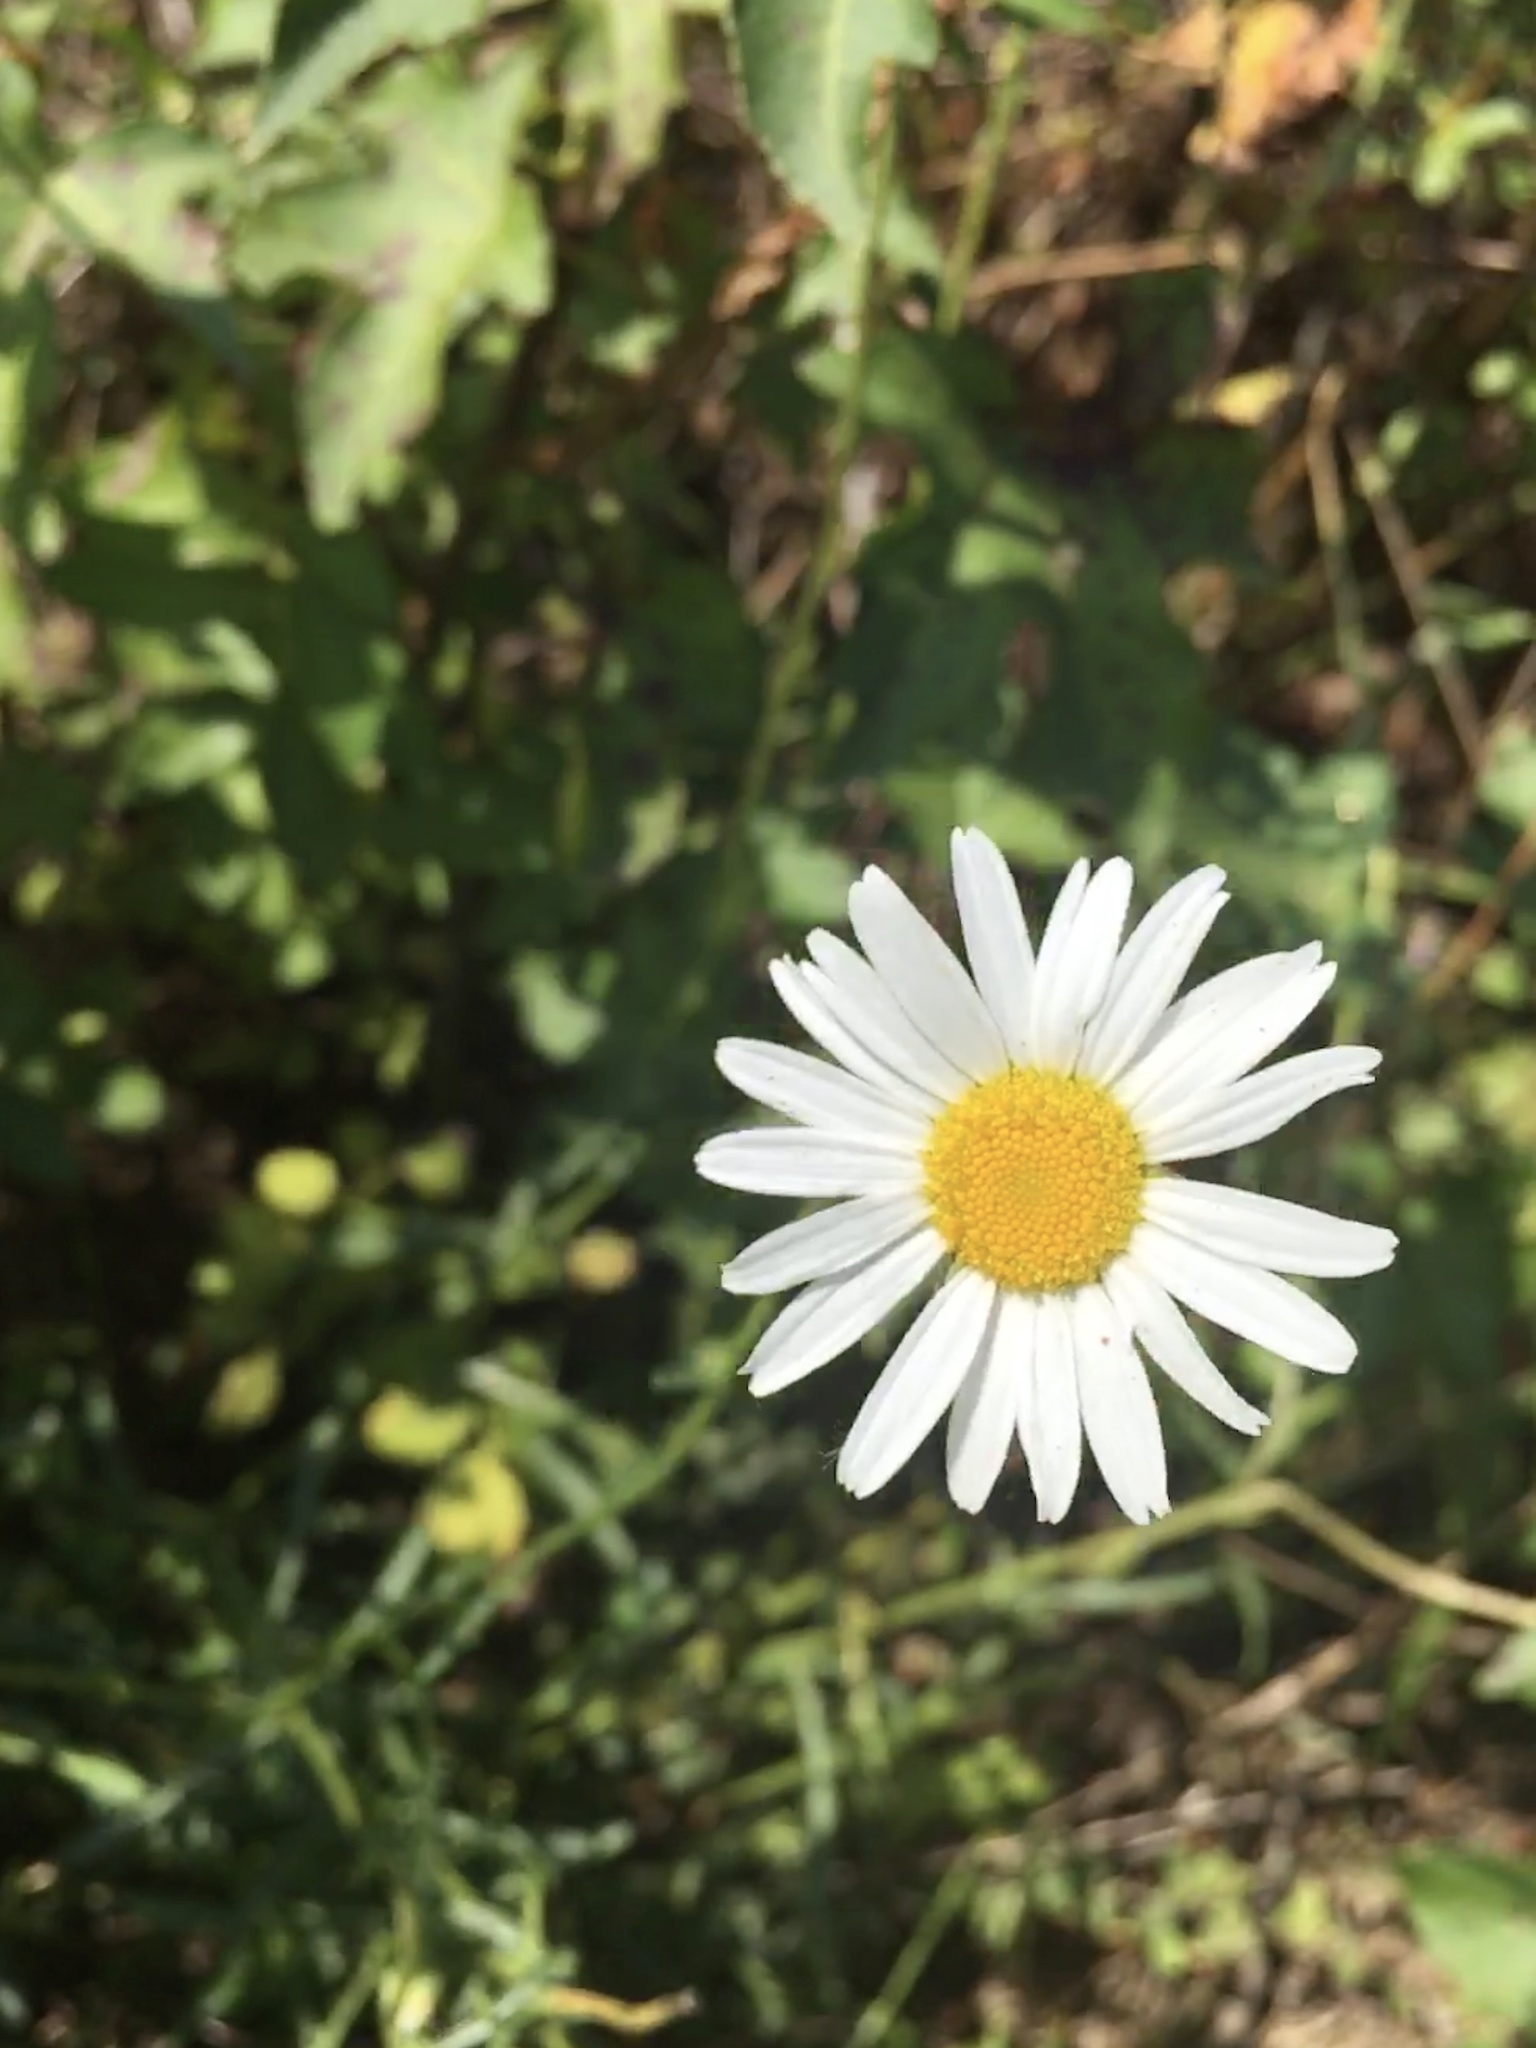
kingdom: Plantae
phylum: Tracheophyta
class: Magnoliopsida
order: Asterales
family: Asteraceae
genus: Leucanthemum
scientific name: Leucanthemum vulgare
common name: Oxeye daisy
